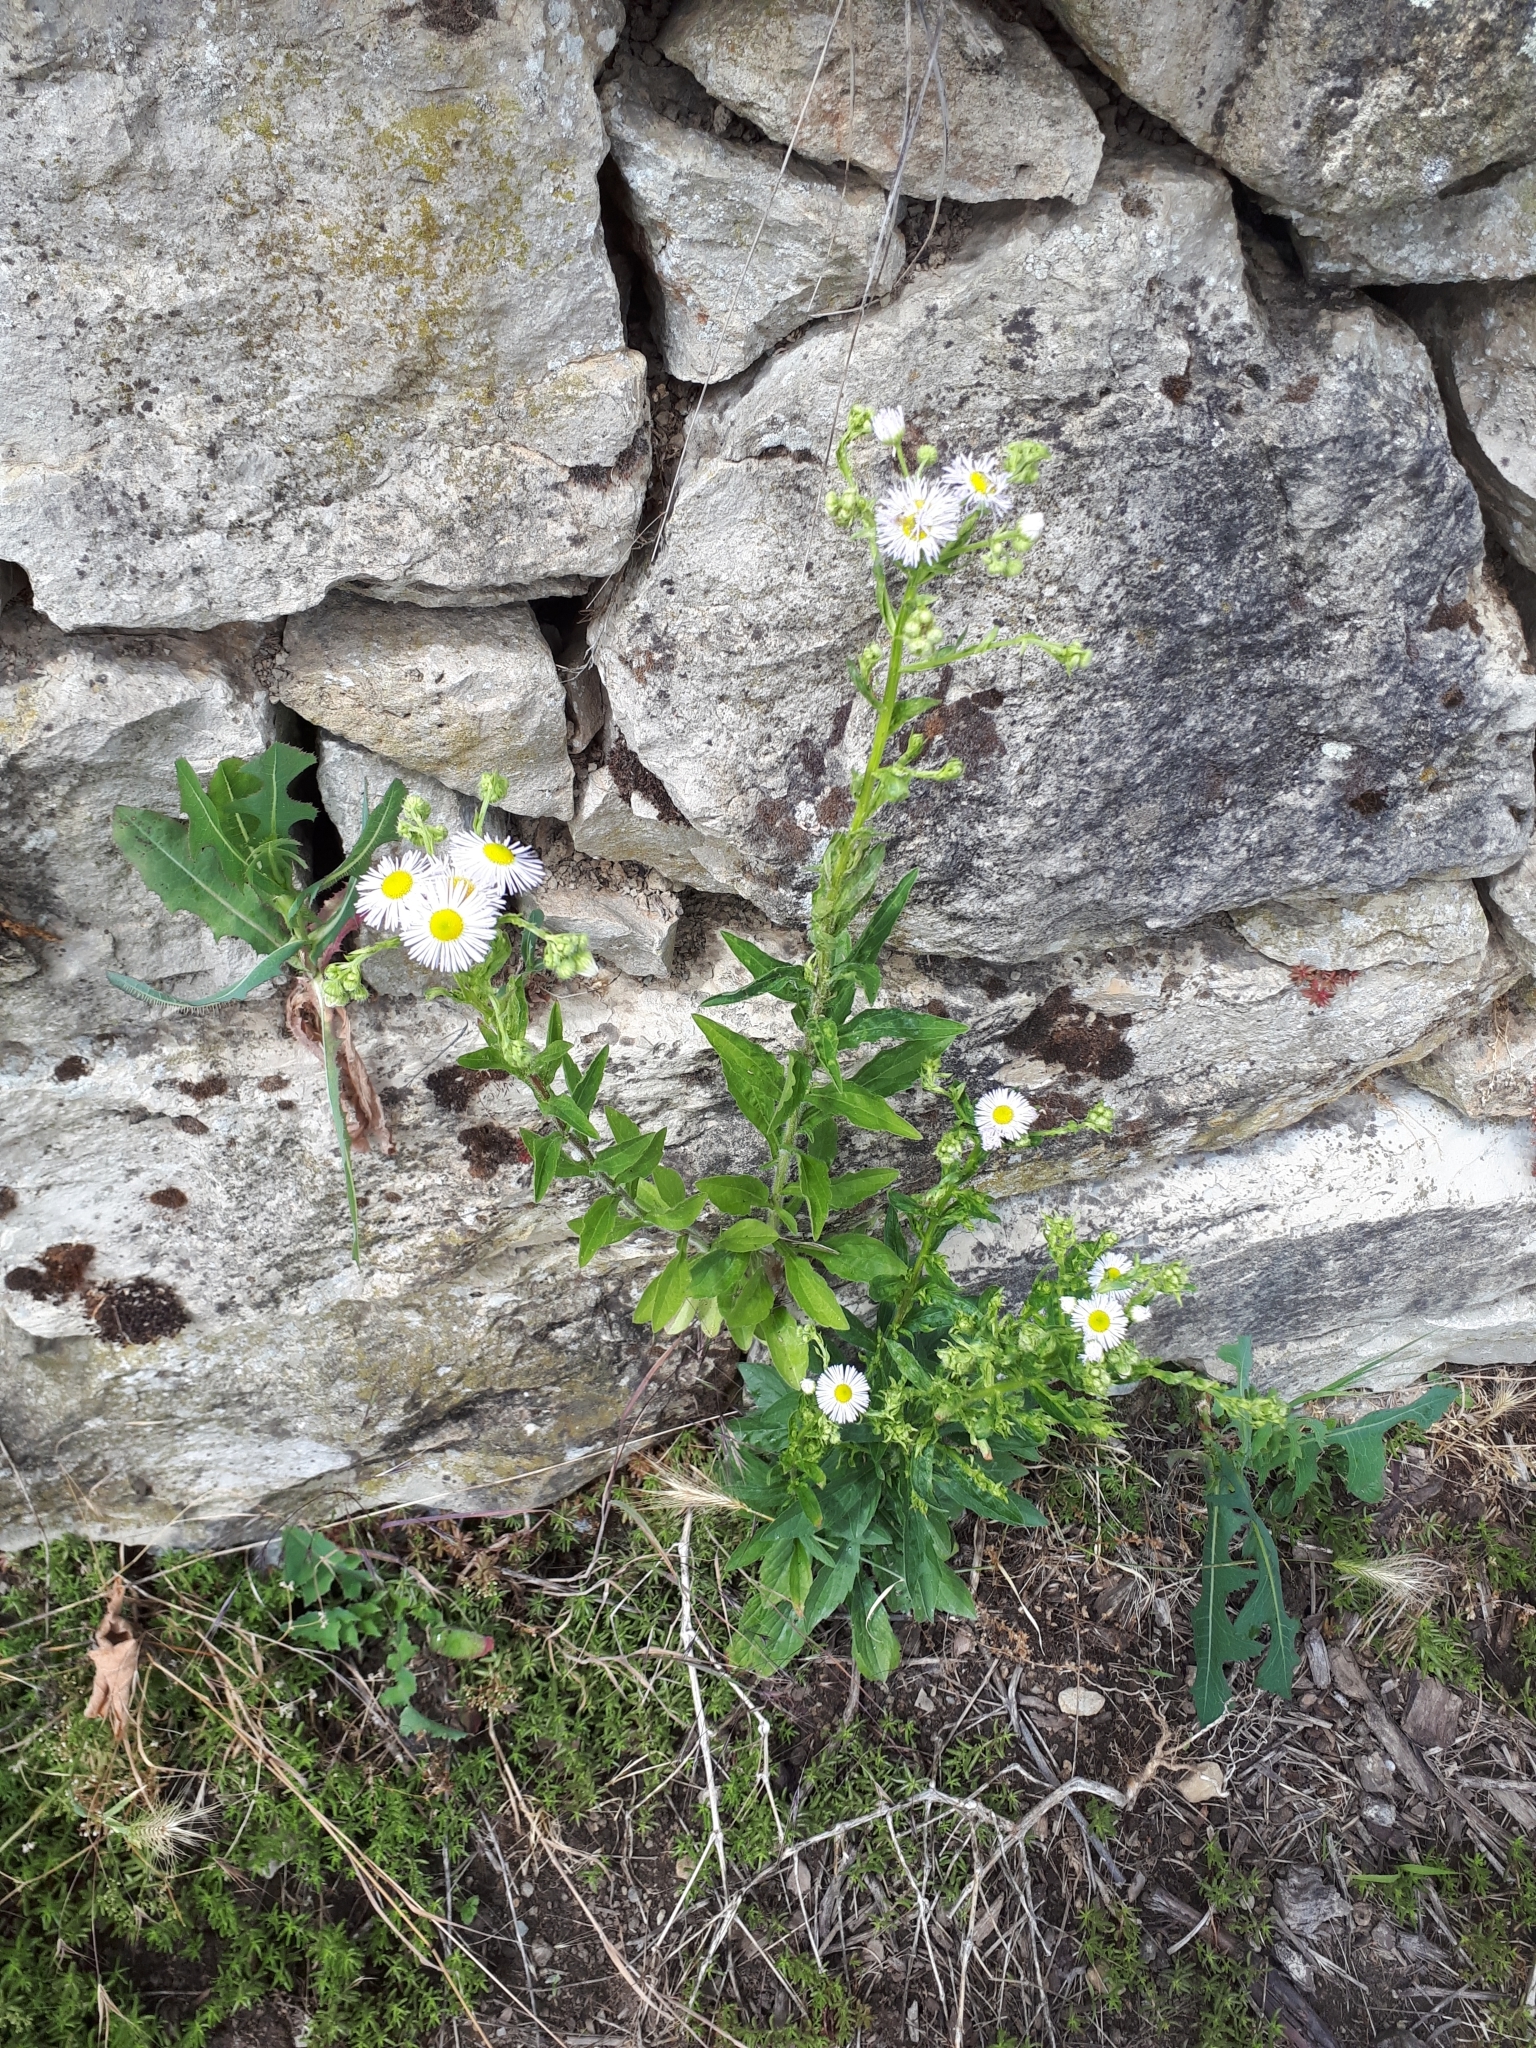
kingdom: Plantae
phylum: Tracheophyta
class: Magnoliopsida
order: Asterales
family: Asteraceae
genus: Erigeron
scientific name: Erigeron annuus
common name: Tall fleabane
